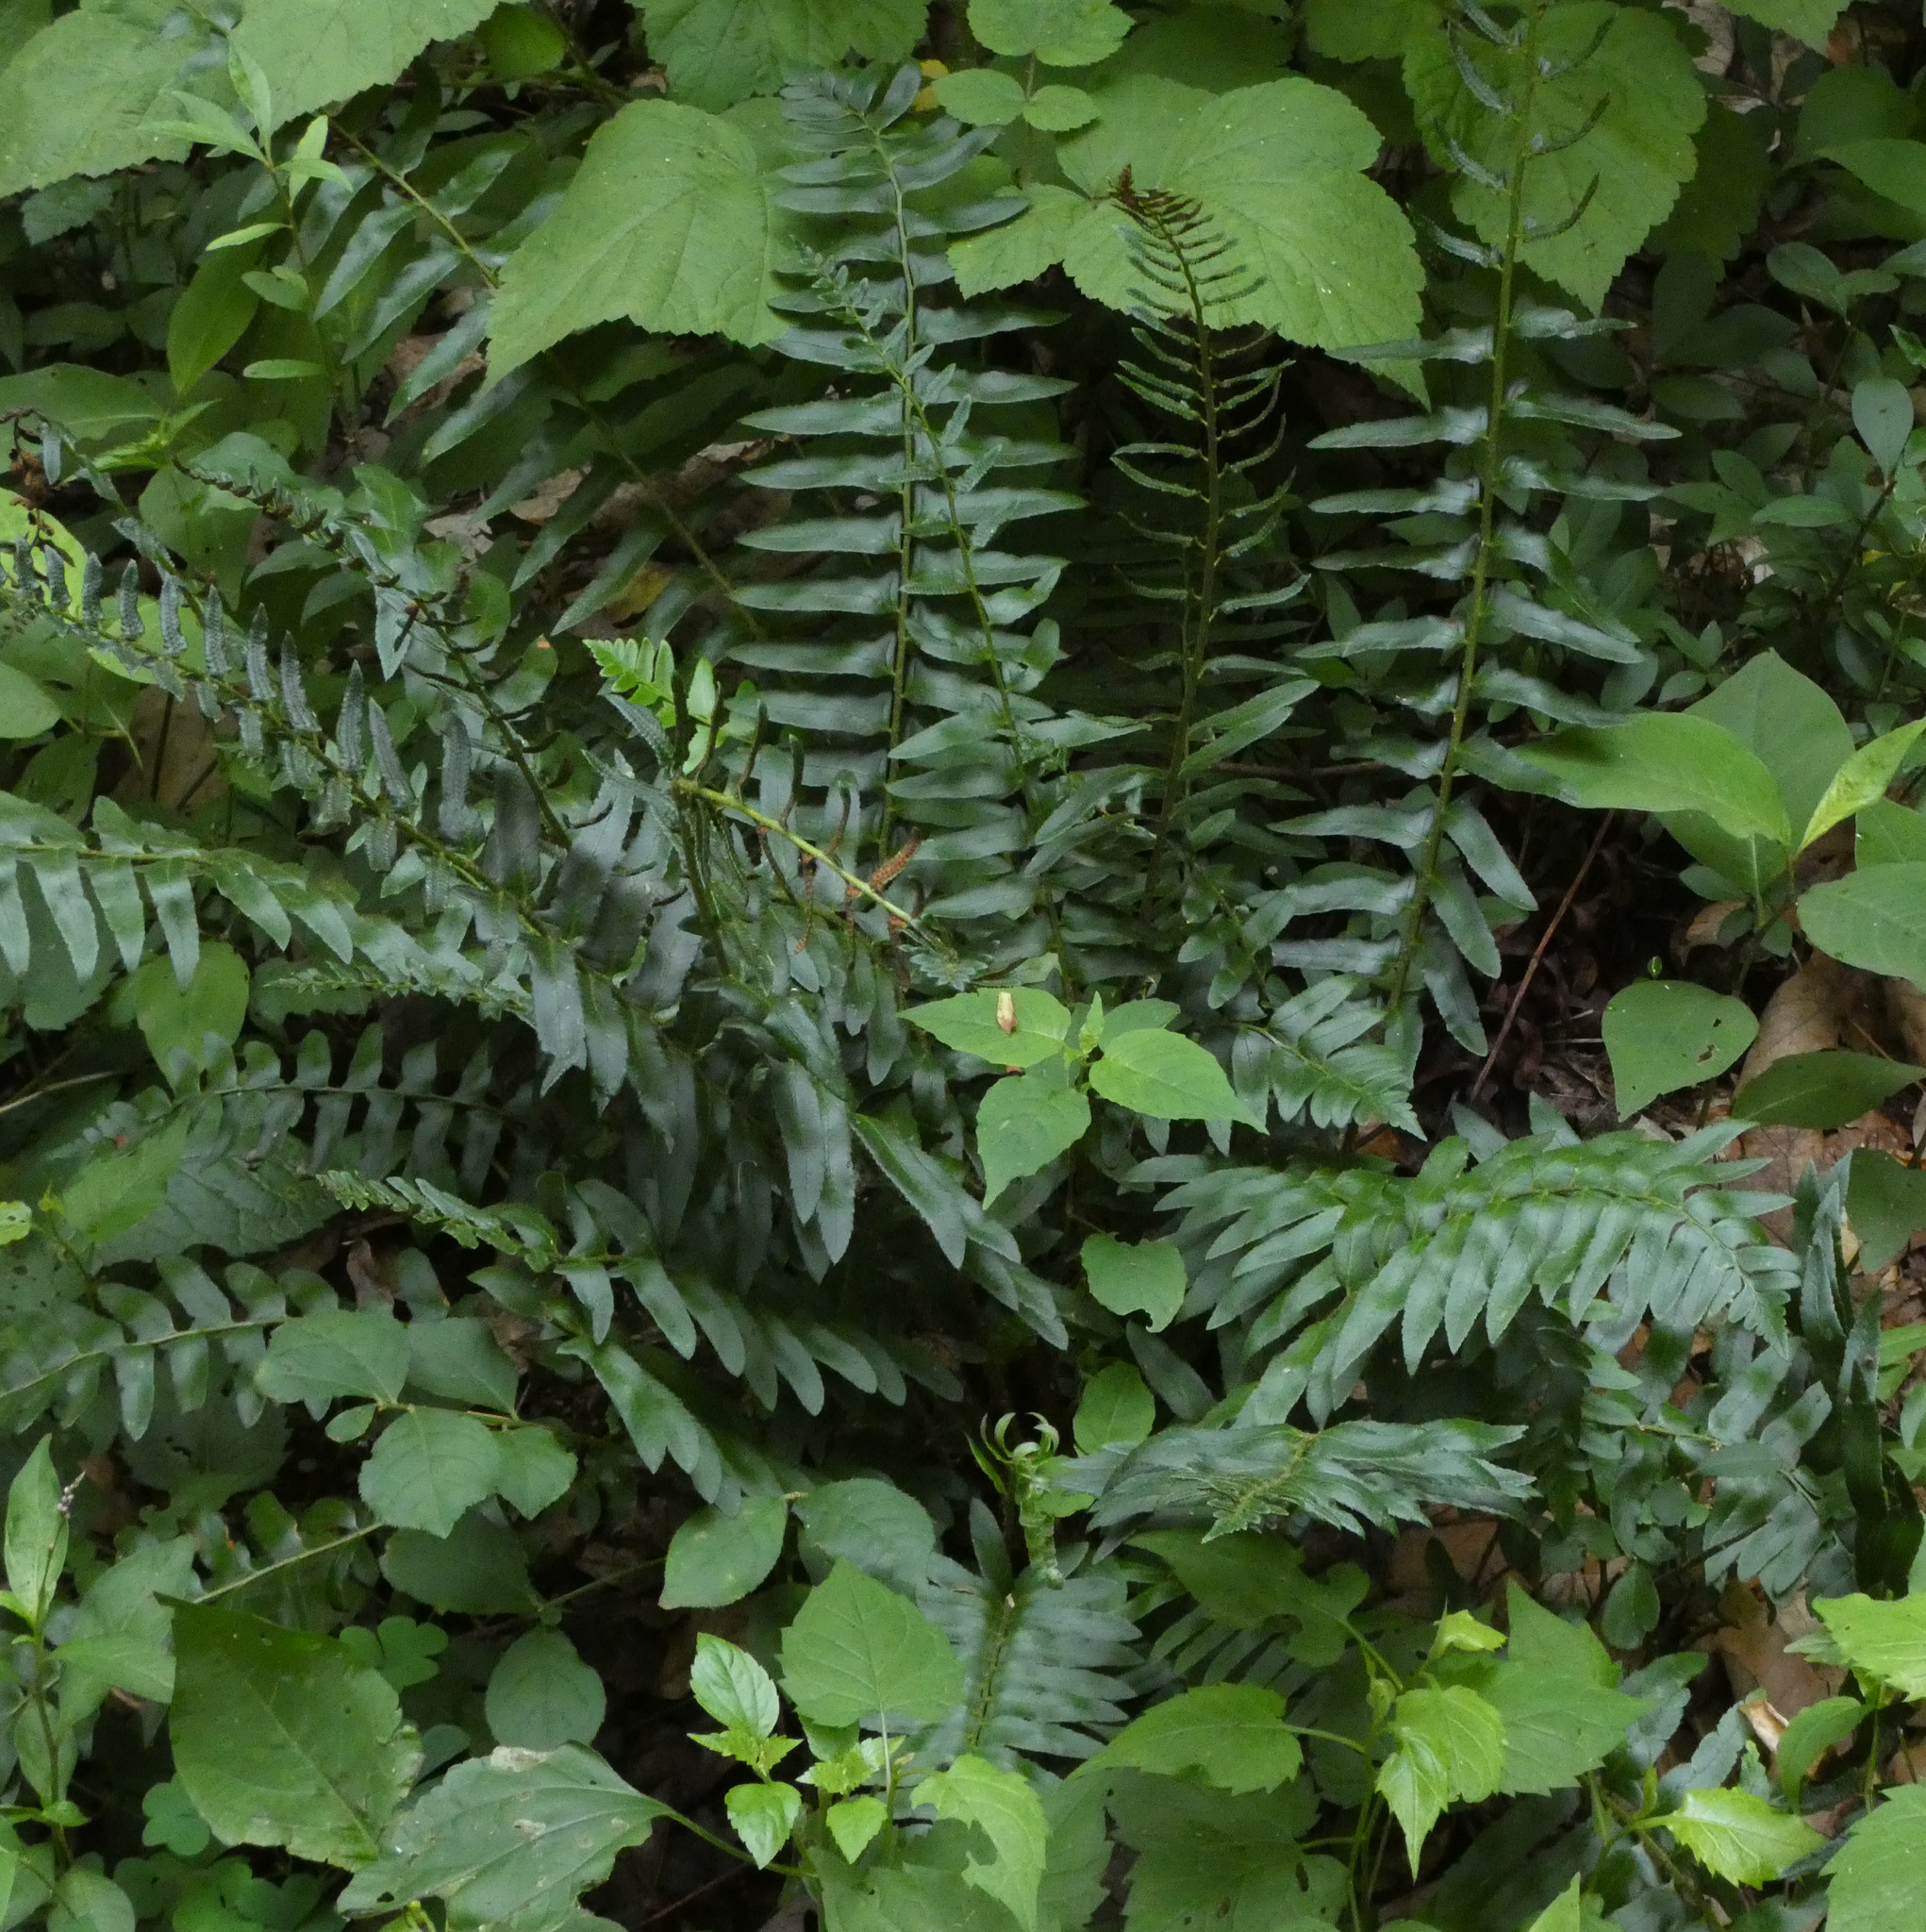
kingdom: Plantae
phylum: Tracheophyta
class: Polypodiopsida
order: Polypodiales
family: Dryopteridaceae
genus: Polystichum
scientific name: Polystichum acrostichoides
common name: Christmas fern
